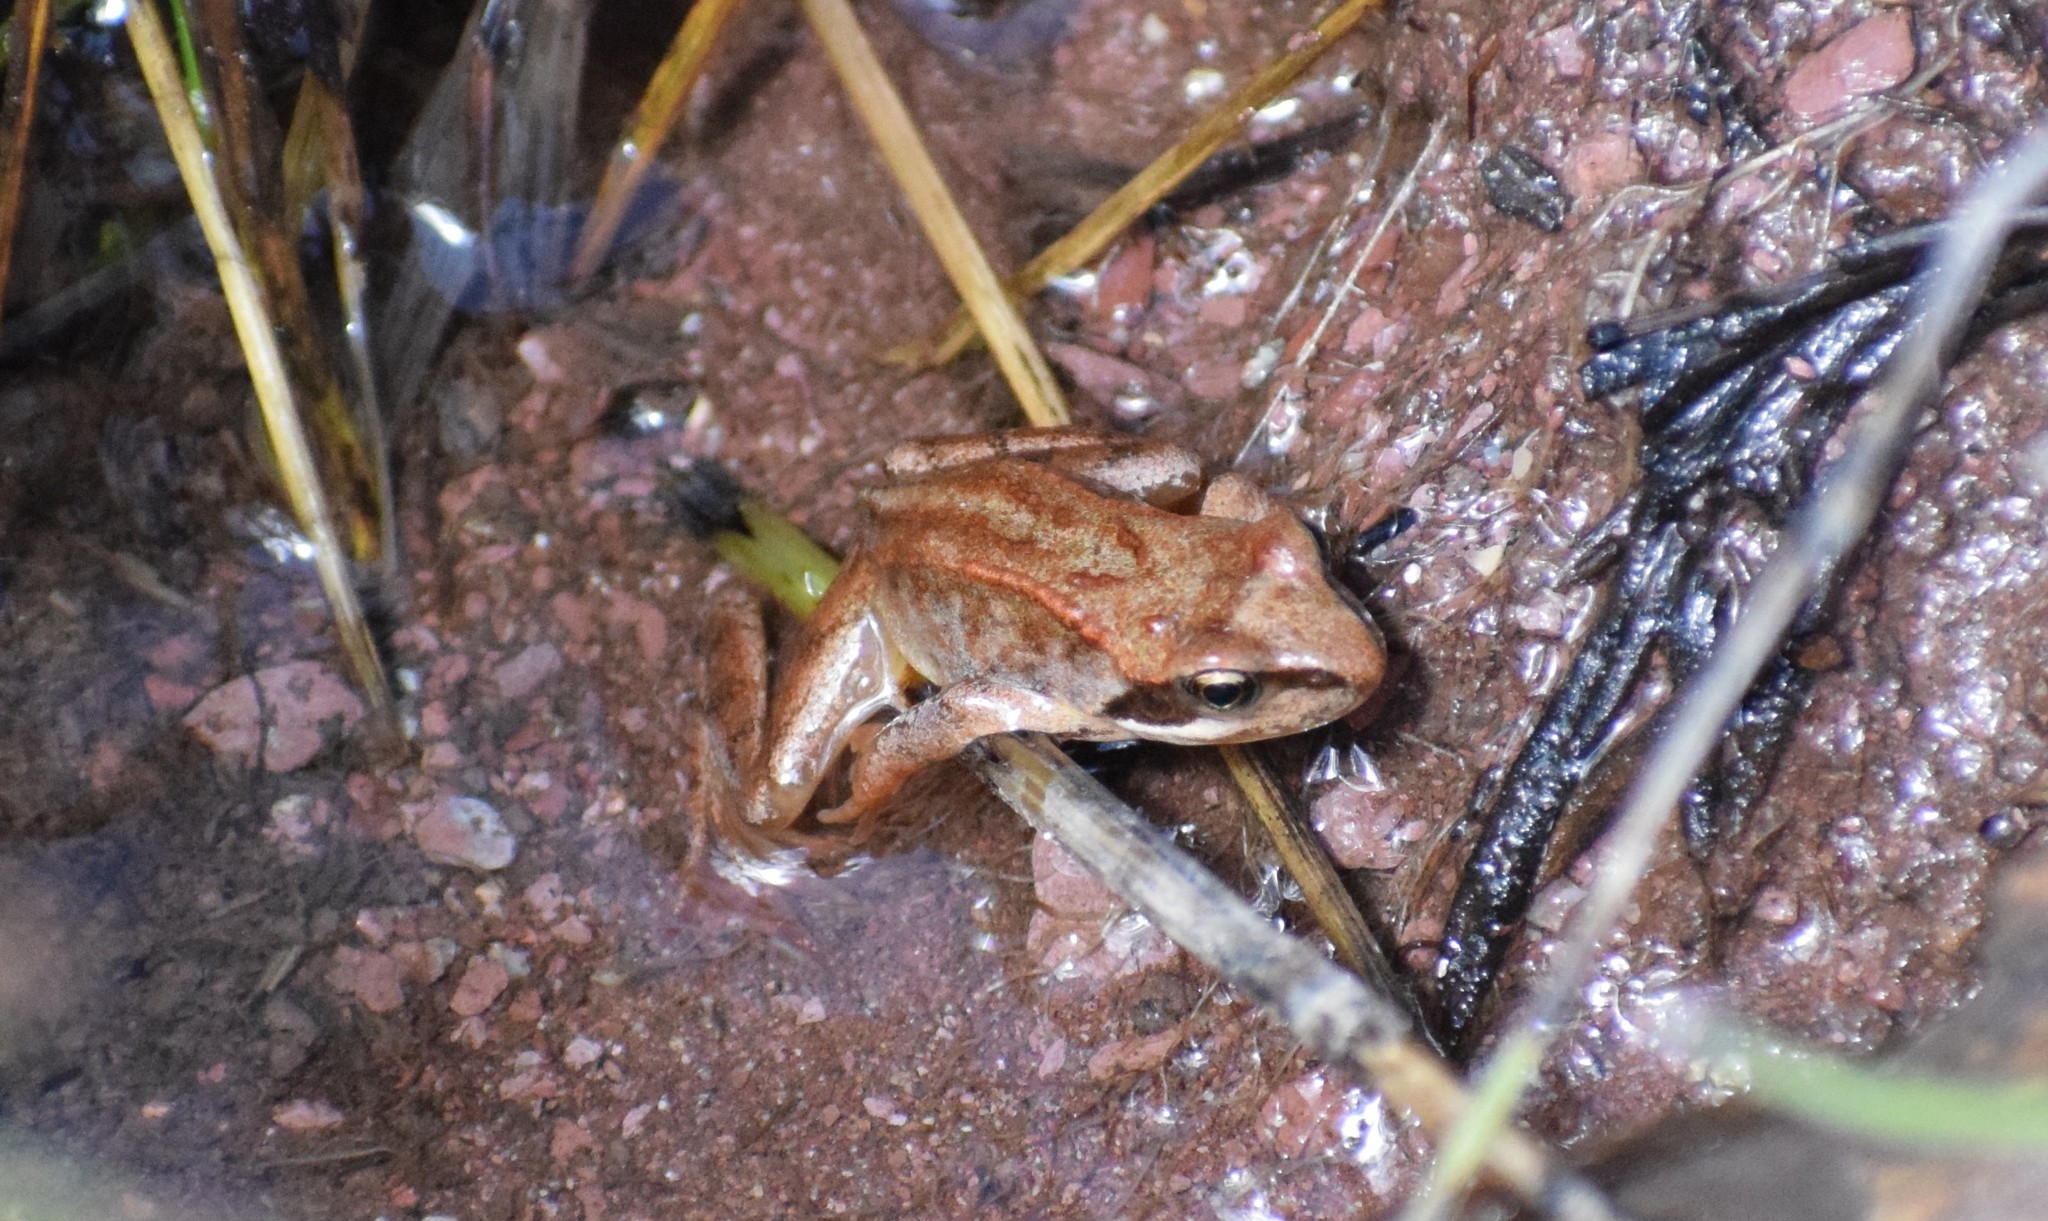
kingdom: Animalia
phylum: Chordata
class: Amphibia
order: Anura
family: Ranidae
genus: Rana
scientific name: Rana temporaria
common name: Common frog
